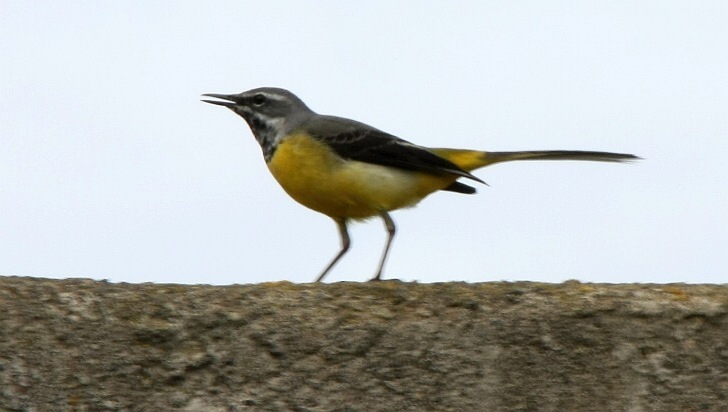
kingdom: Animalia
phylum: Chordata
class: Aves
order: Passeriformes
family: Motacillidae
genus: Motacilla
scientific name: Motacilla cinerea
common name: Grey wagtail
